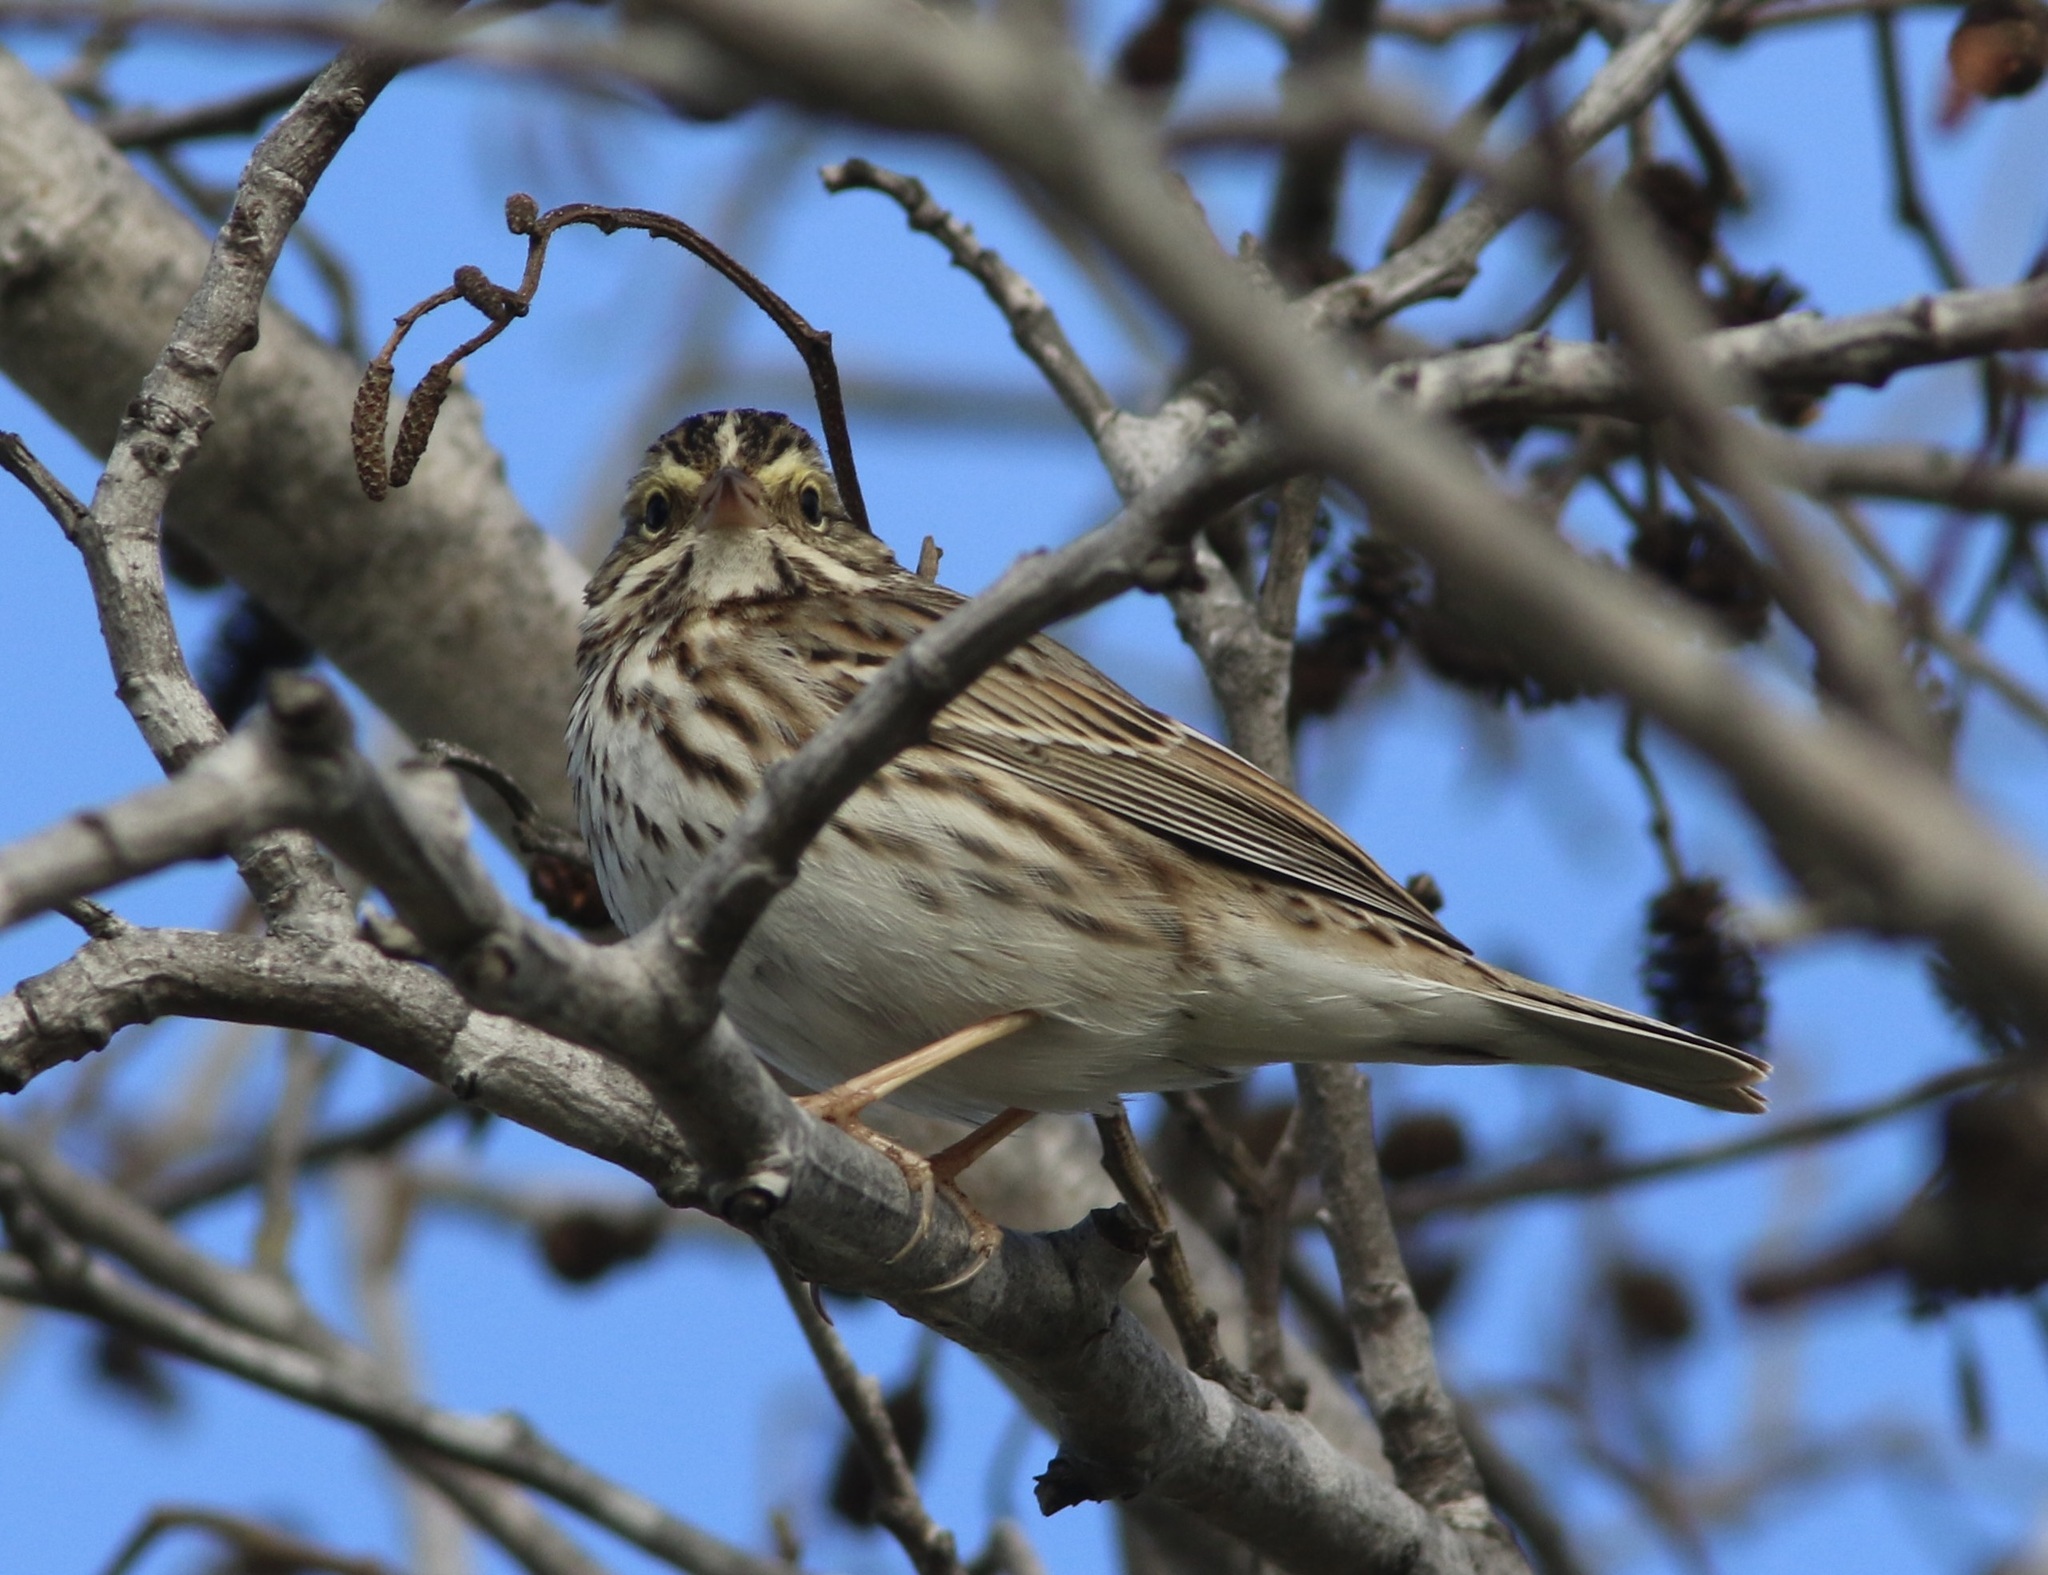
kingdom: Animalia
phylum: Chordata
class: Aves
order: Passeriformes
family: Passerellidae
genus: Passerculus
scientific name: Passerculus sandwichensis
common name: Savannah sparrow
